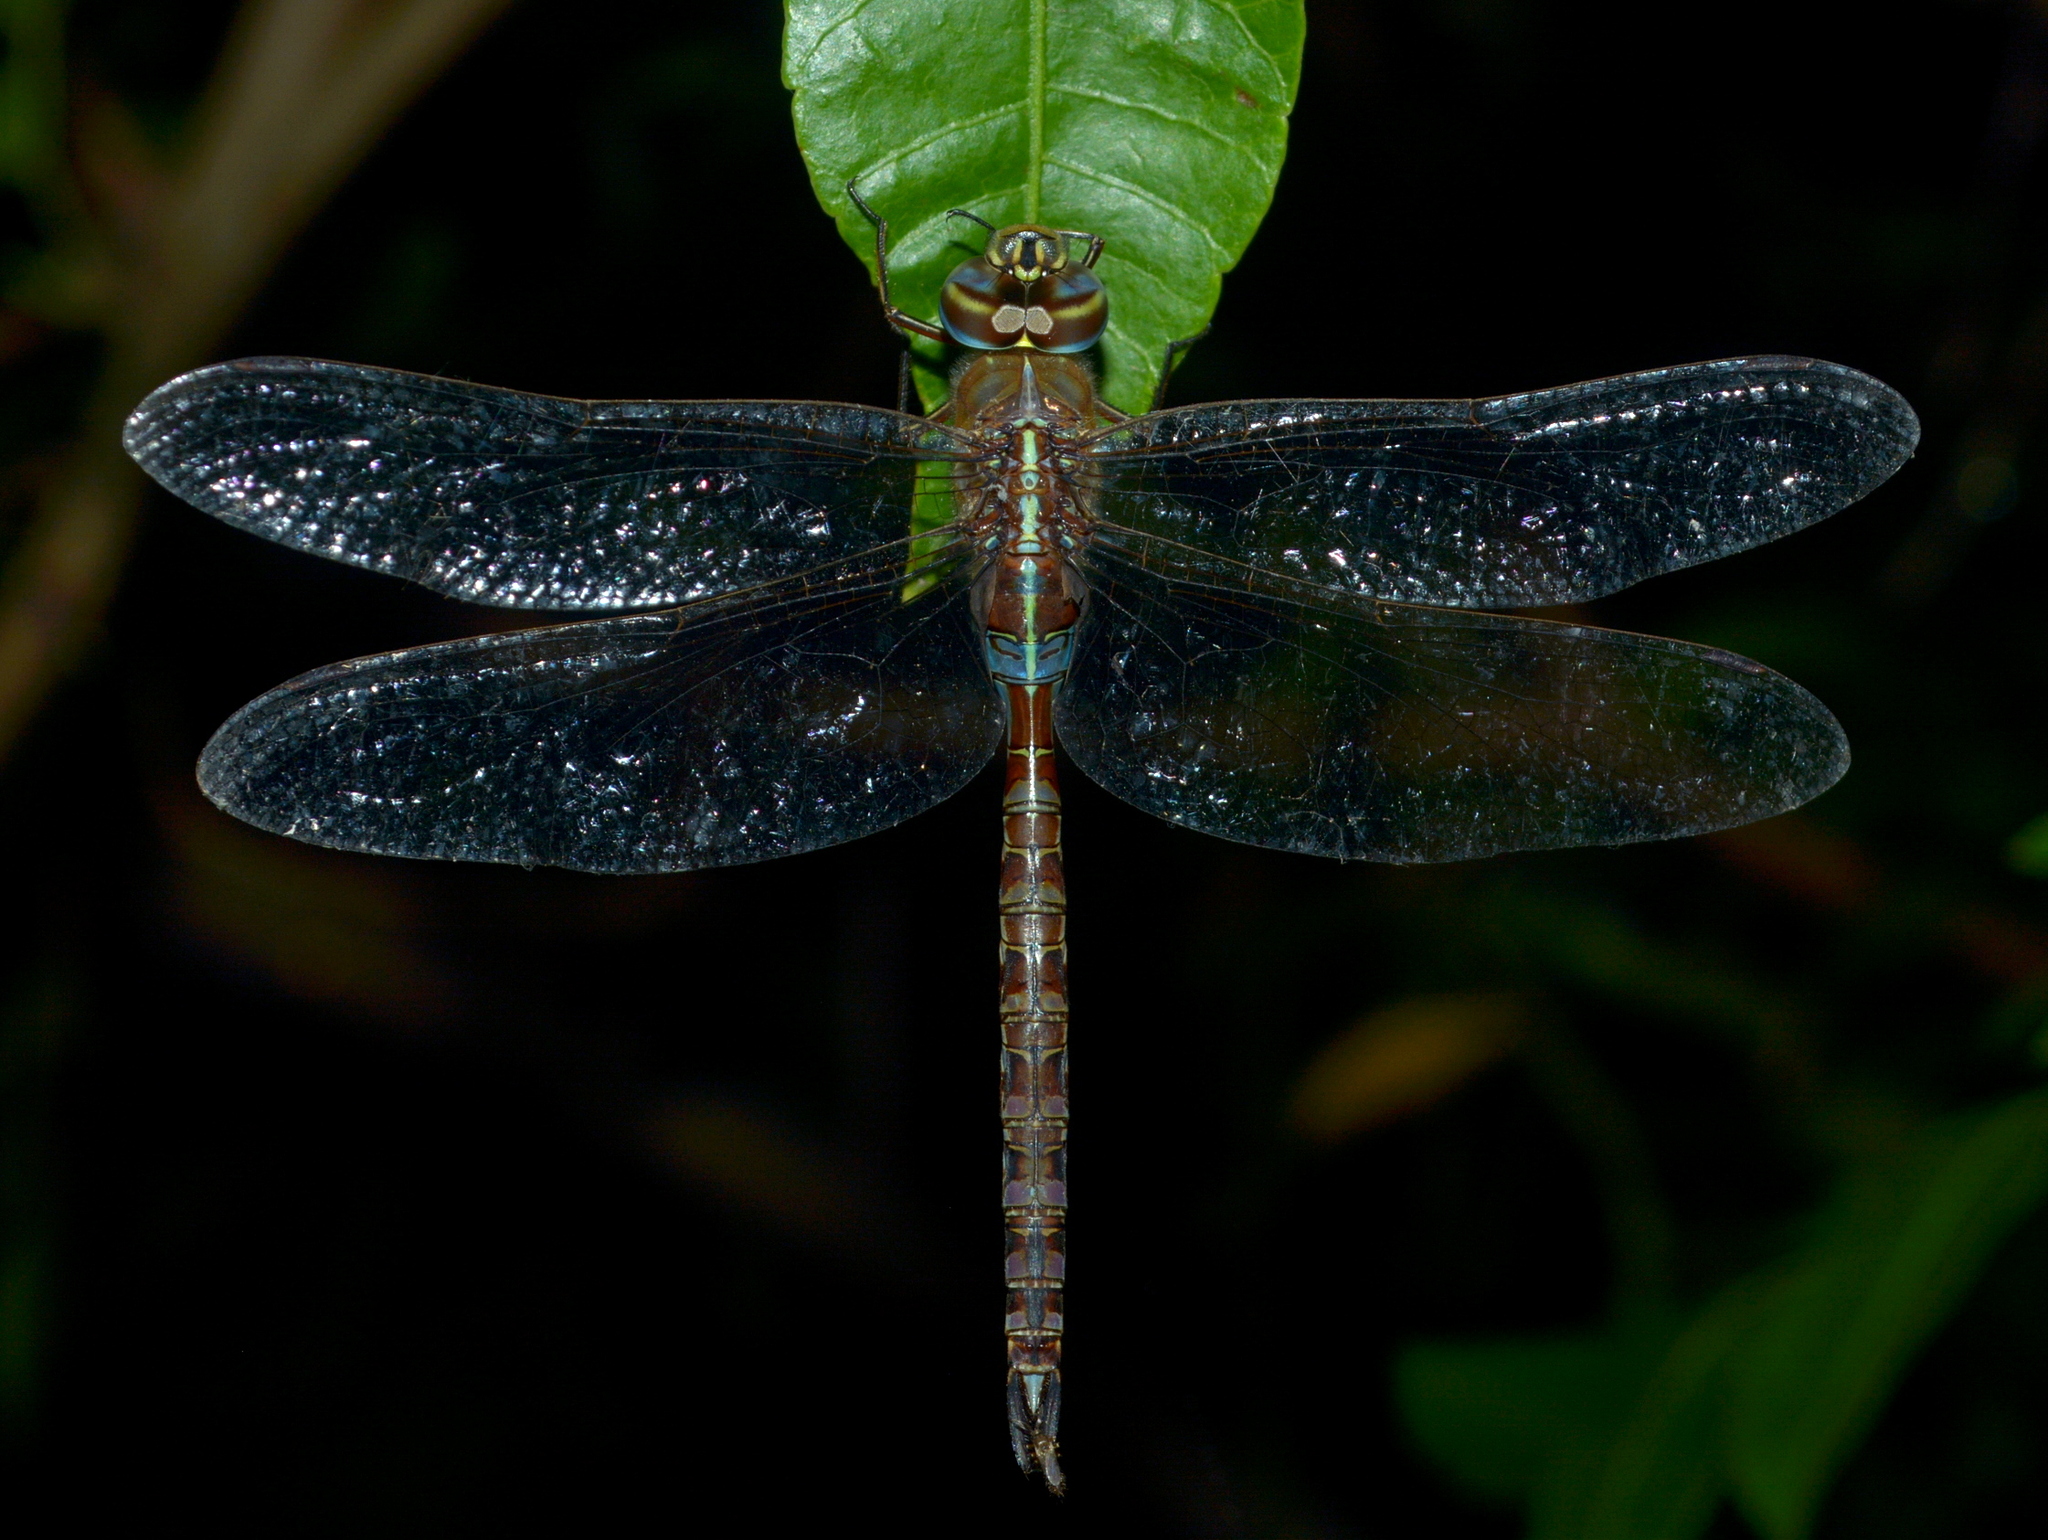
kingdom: Animalia
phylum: Arthropoda
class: Insecta
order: Odonata
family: Aeshnidae
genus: Rhionaeschna
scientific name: Rhionaeschna bonariensis
